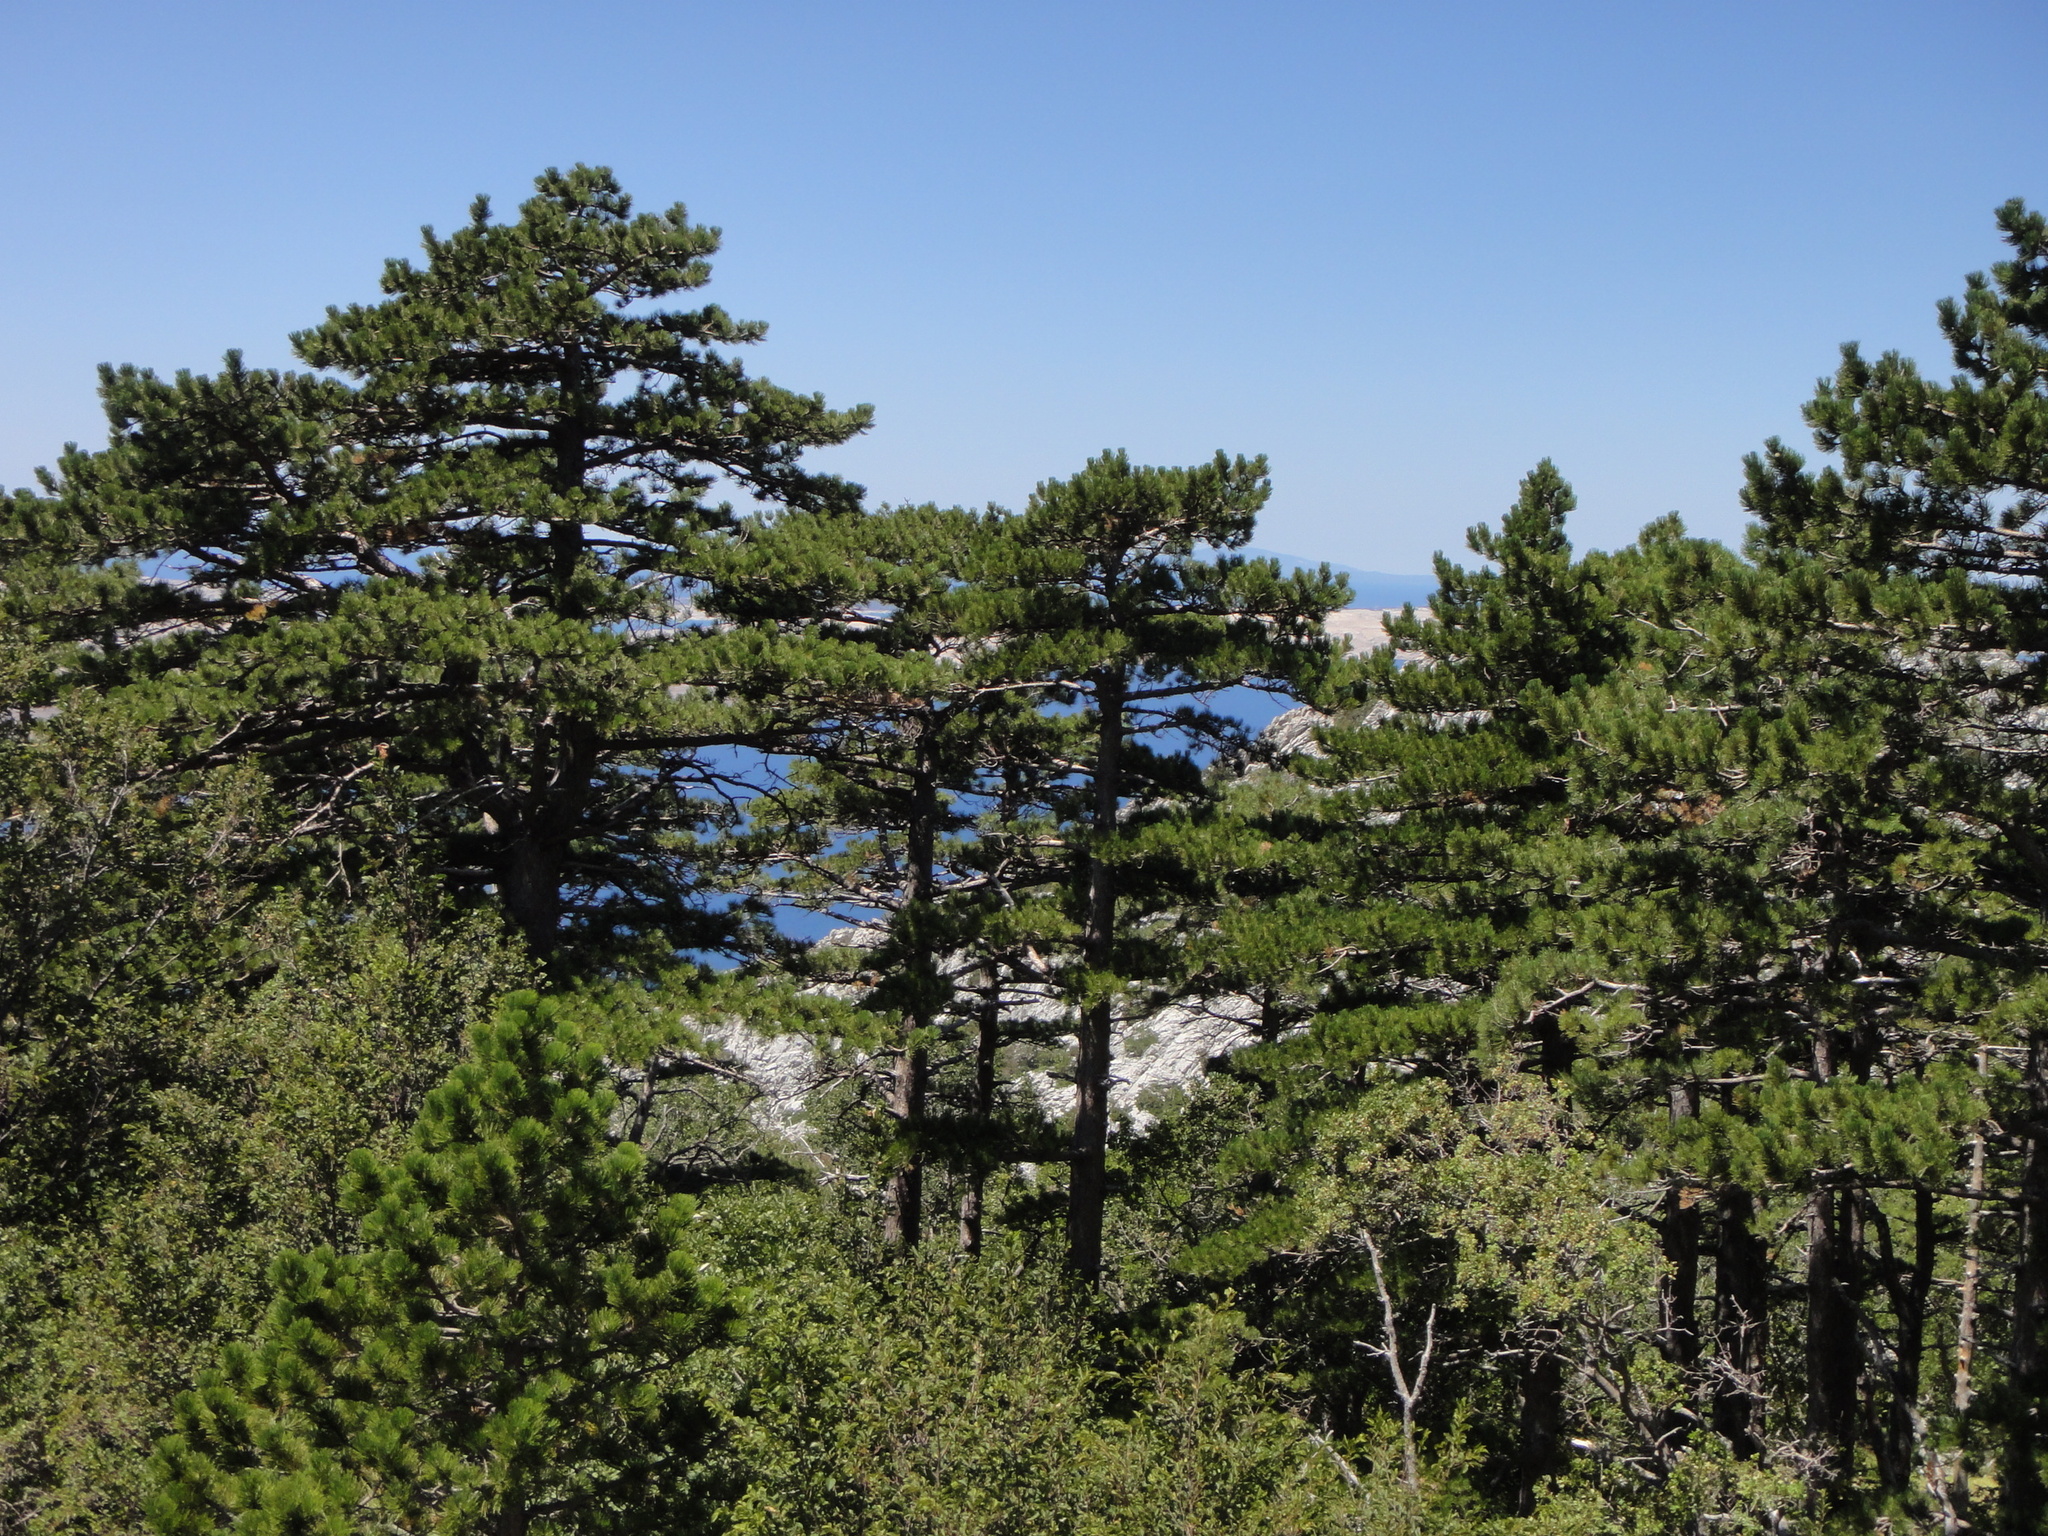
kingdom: Plantae
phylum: Tracheophyta
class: Pinopsida
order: Pinales
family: Pinaceae
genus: Pinus
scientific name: Pinus nigra
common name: Austrian pine
